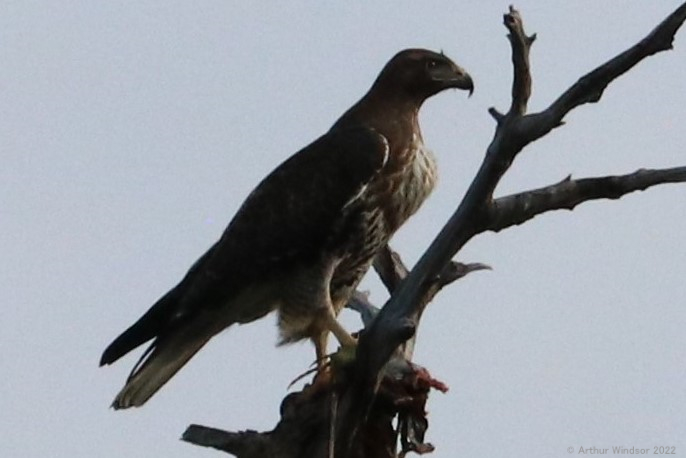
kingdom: Animalia
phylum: Chordata
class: Aves
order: Accipitriformes
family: Accipitridae
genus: Buteo
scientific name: Buteo jamaicensis
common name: Red-tailed hawk
